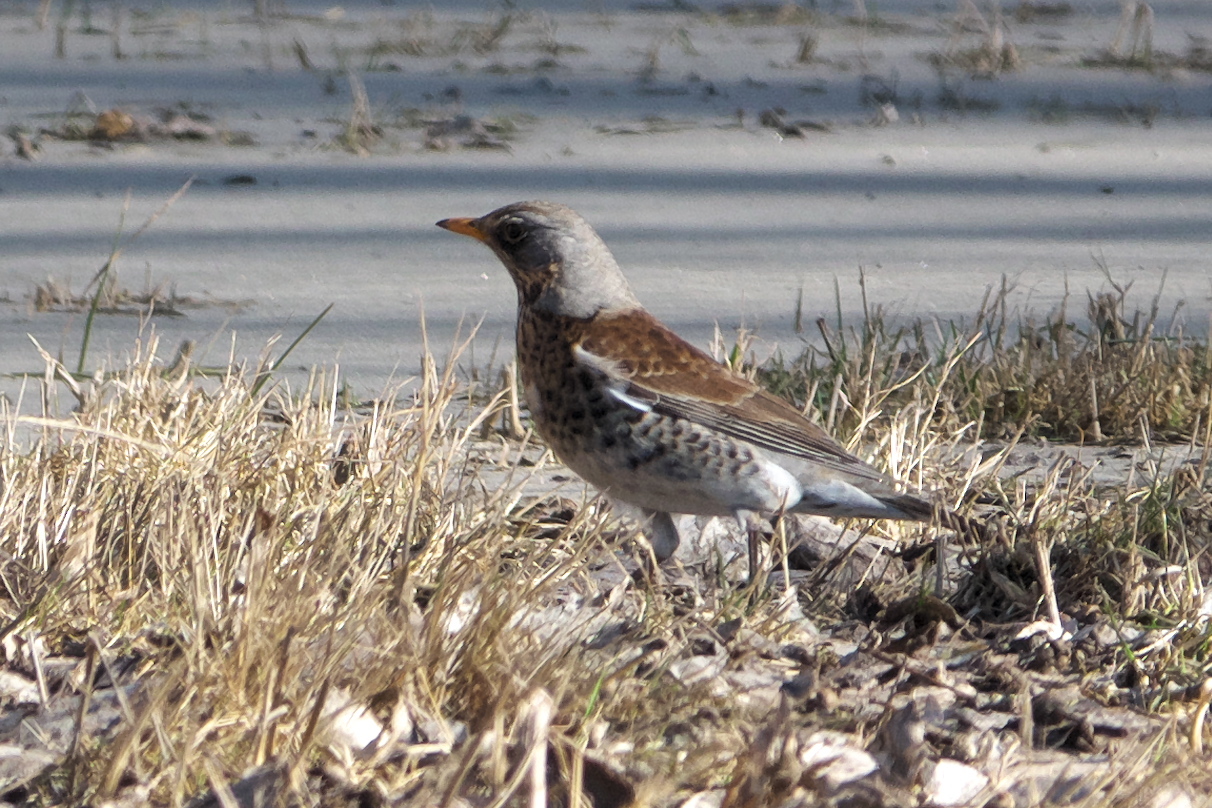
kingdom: Animalia
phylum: Chordata
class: Aves
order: Passeriformes
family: Turdidae
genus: Turdus
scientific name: Turdus pilaris
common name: Fieldfare
